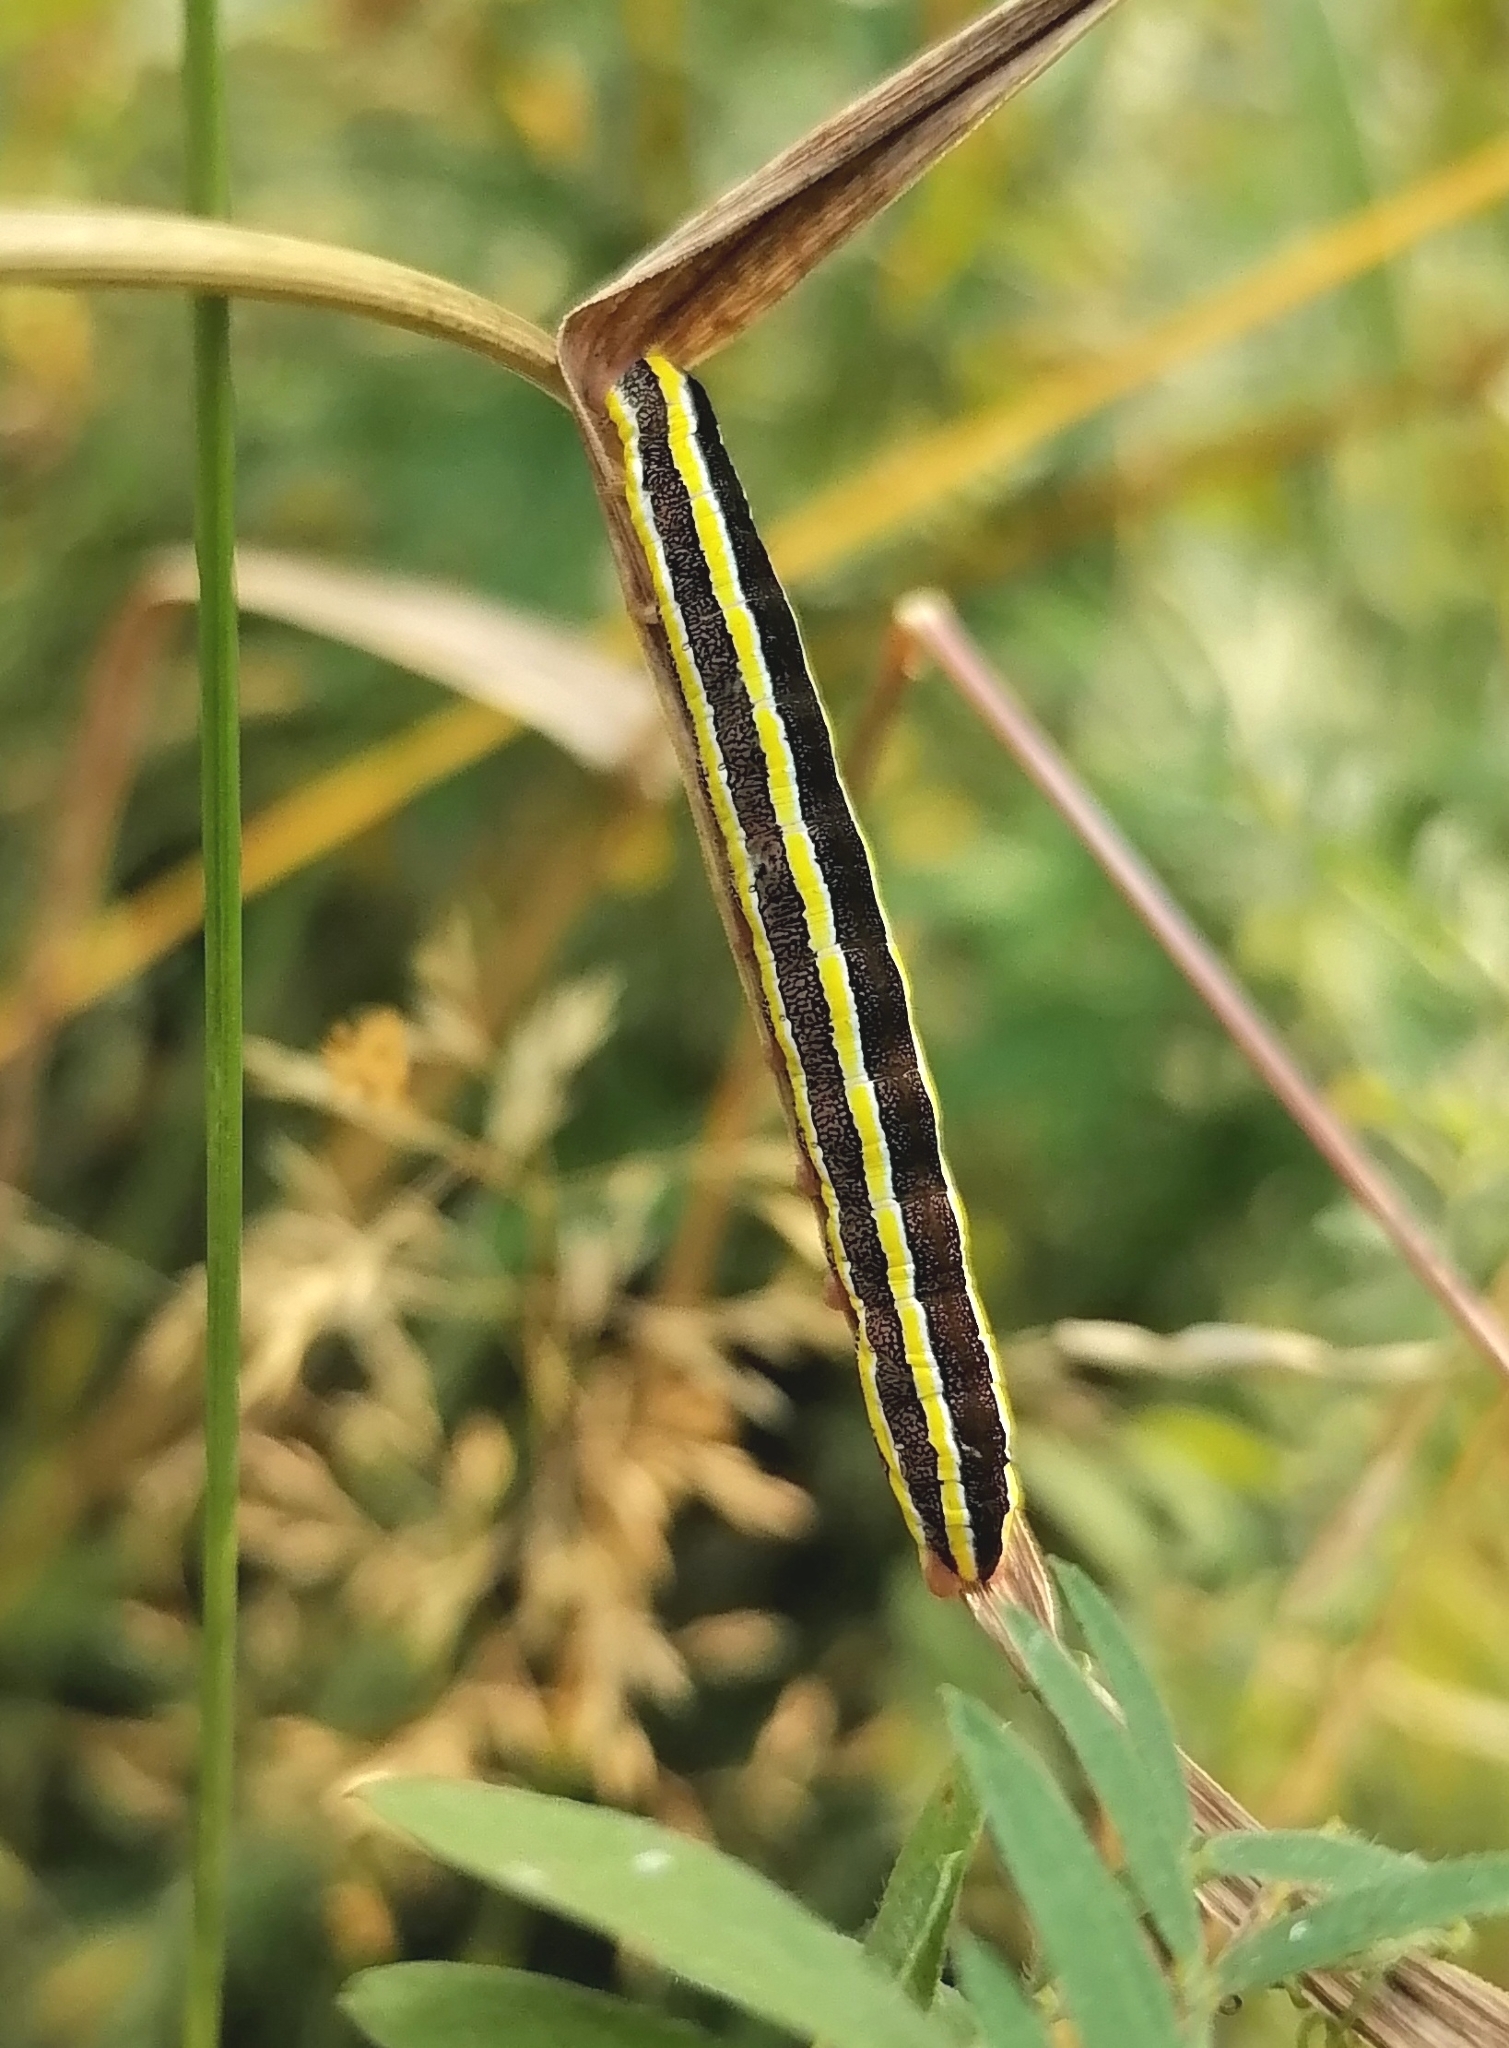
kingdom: Animalia
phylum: Arthropoda
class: Insecta
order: Lepidoptera
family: Noctuidae
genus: Ceramica
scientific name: Ceramica pisi
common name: Broom moth
